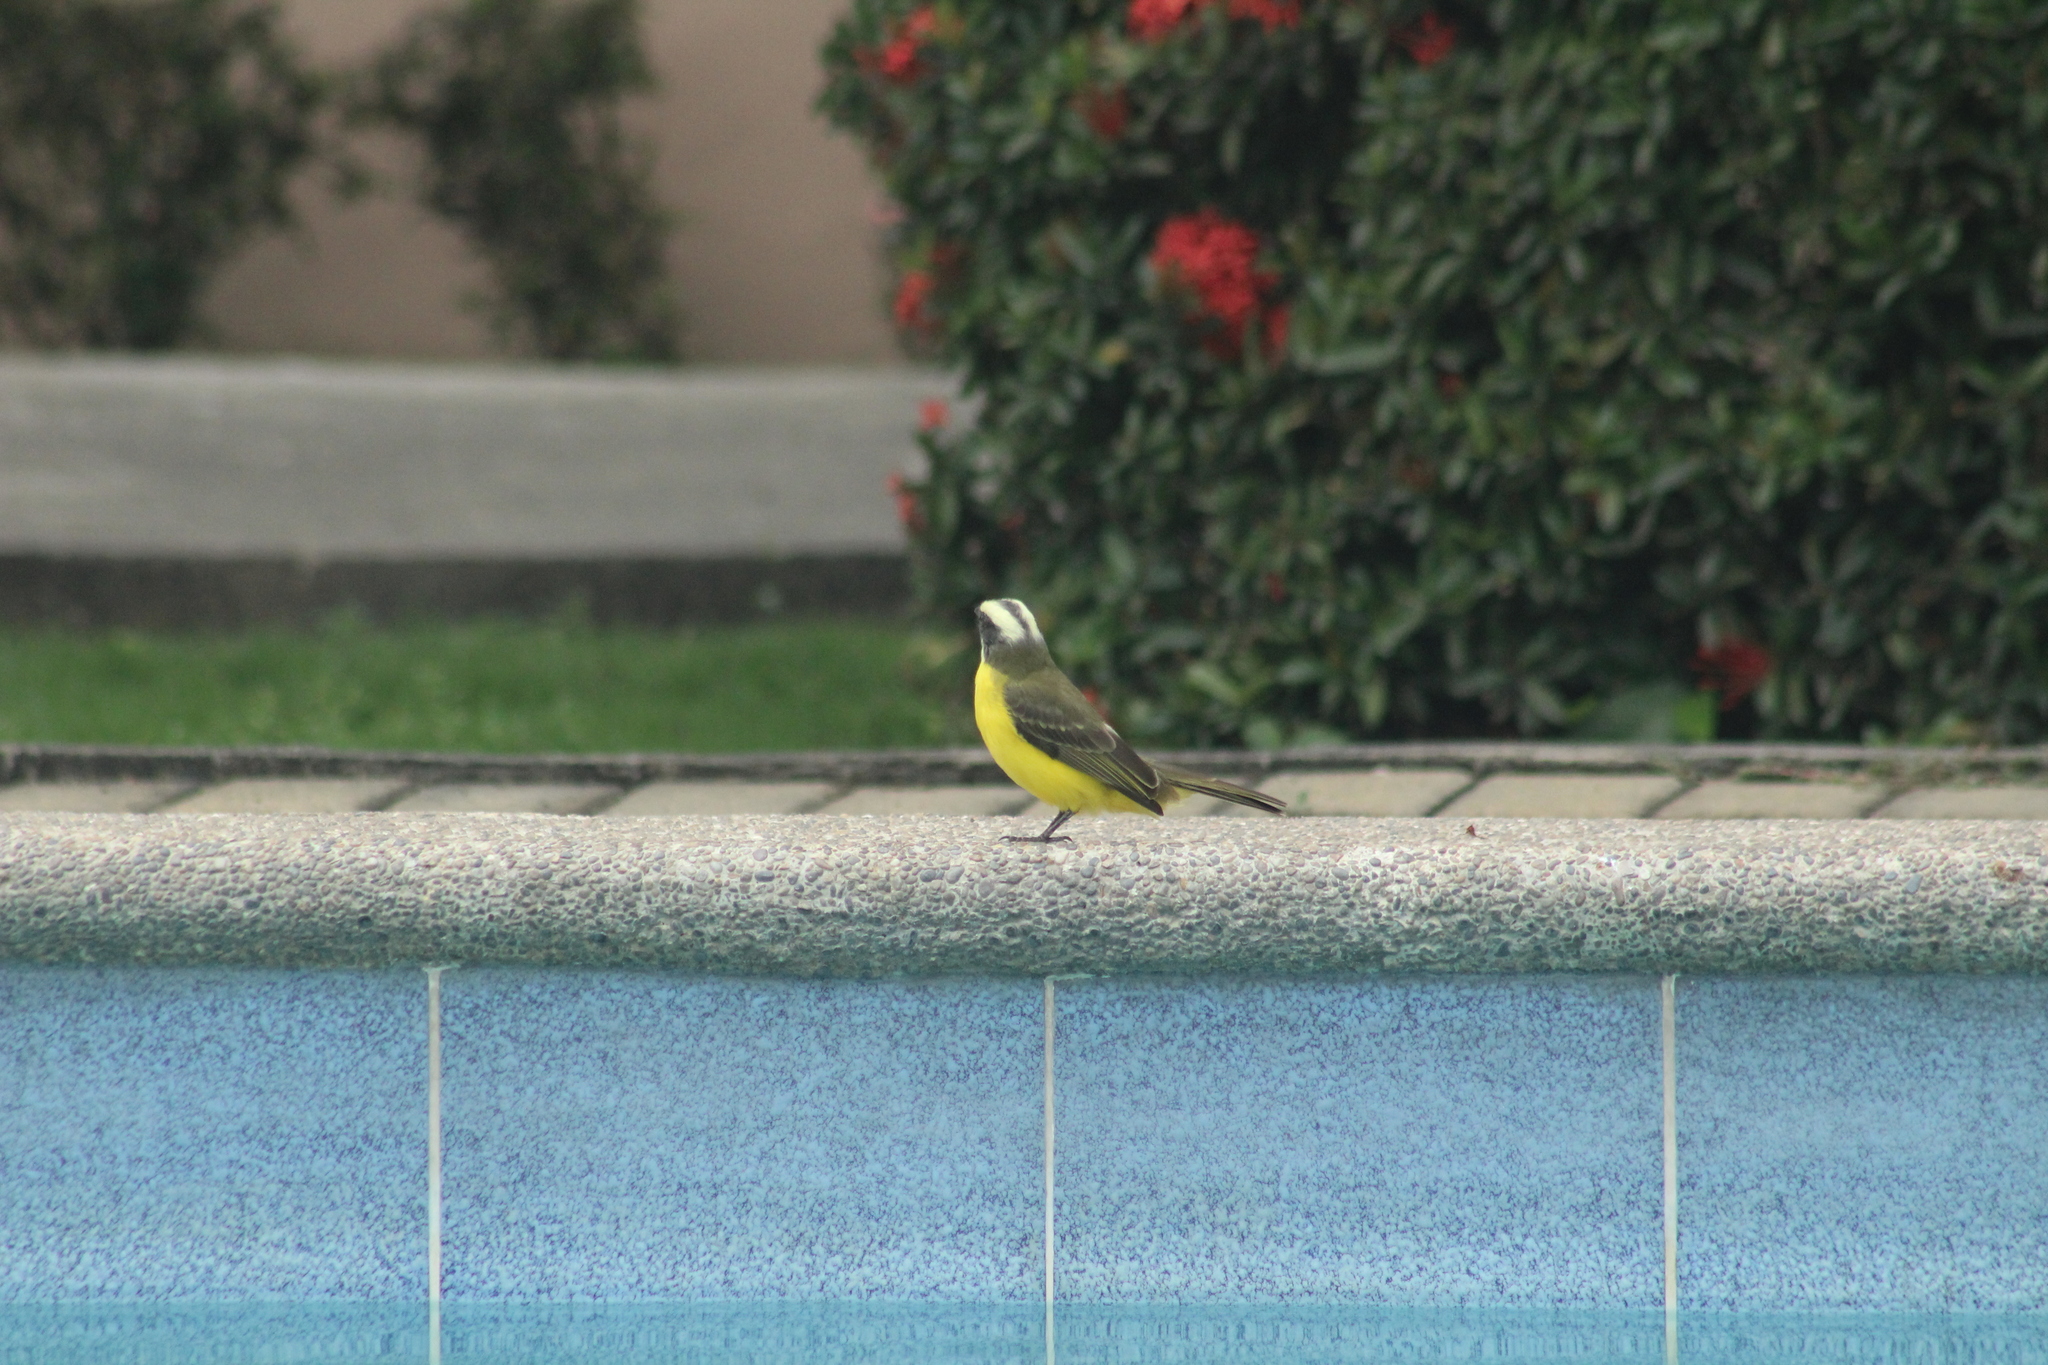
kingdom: Animalia
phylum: Chordata
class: Aves
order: Passeriformes
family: Tyrannidae
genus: Myiozetetes
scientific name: Myiozetetes cayanensis
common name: Rusty-margined flycatcher
